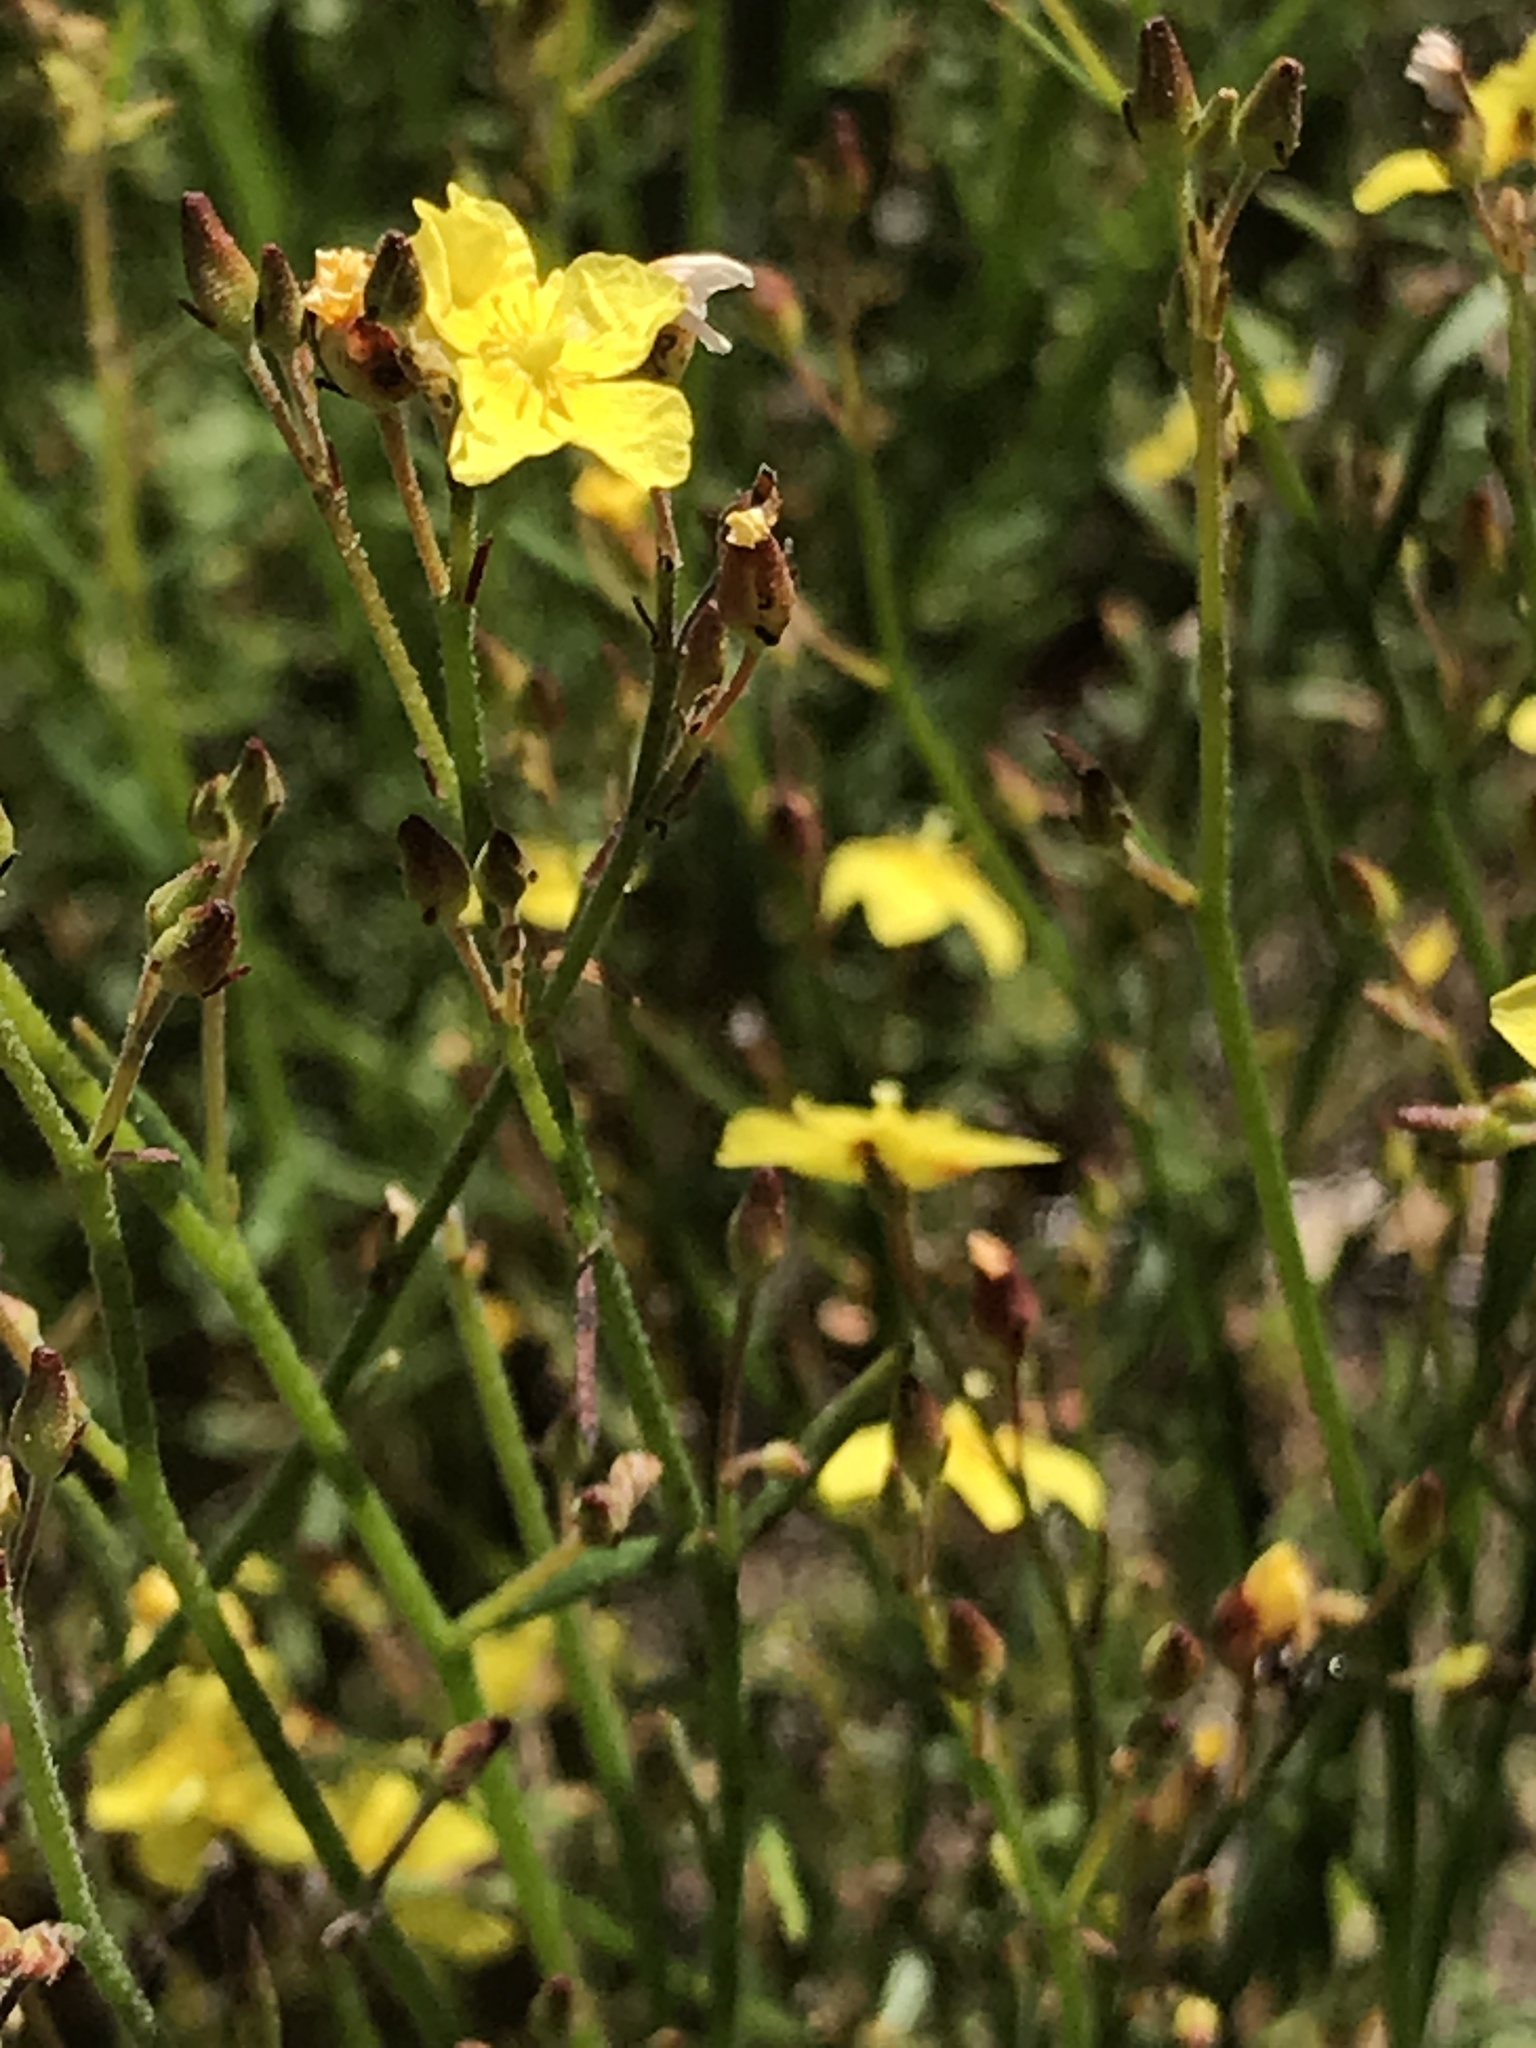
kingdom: Plantae
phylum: Tracheophyta
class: Magnoliopsida
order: Malvales
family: Cistaceae
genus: Crocanthemum
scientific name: Crocanthemum scoparium
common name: Broom-rose
